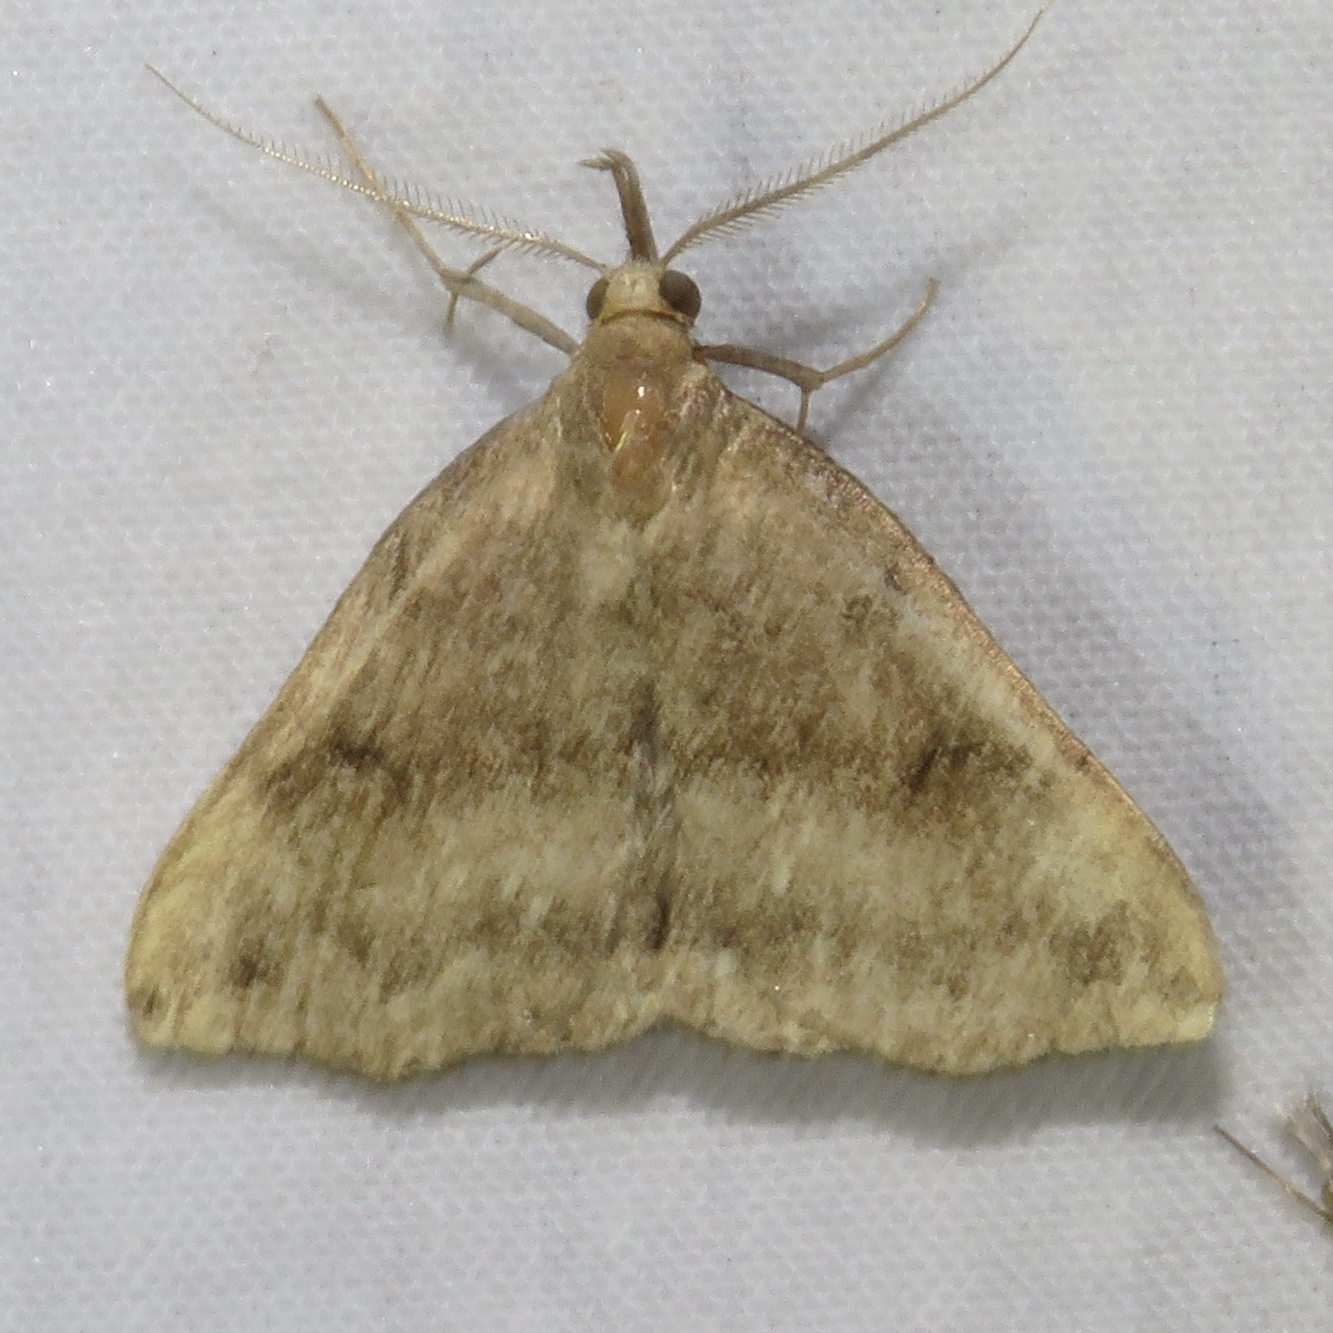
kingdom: Animalia
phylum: Arthropoda
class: Insecta
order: Lepidoptera
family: Erebidae
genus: Phalaenostola
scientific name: Phalaenostola eumelusalis
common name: Dark phalaenostola moth
